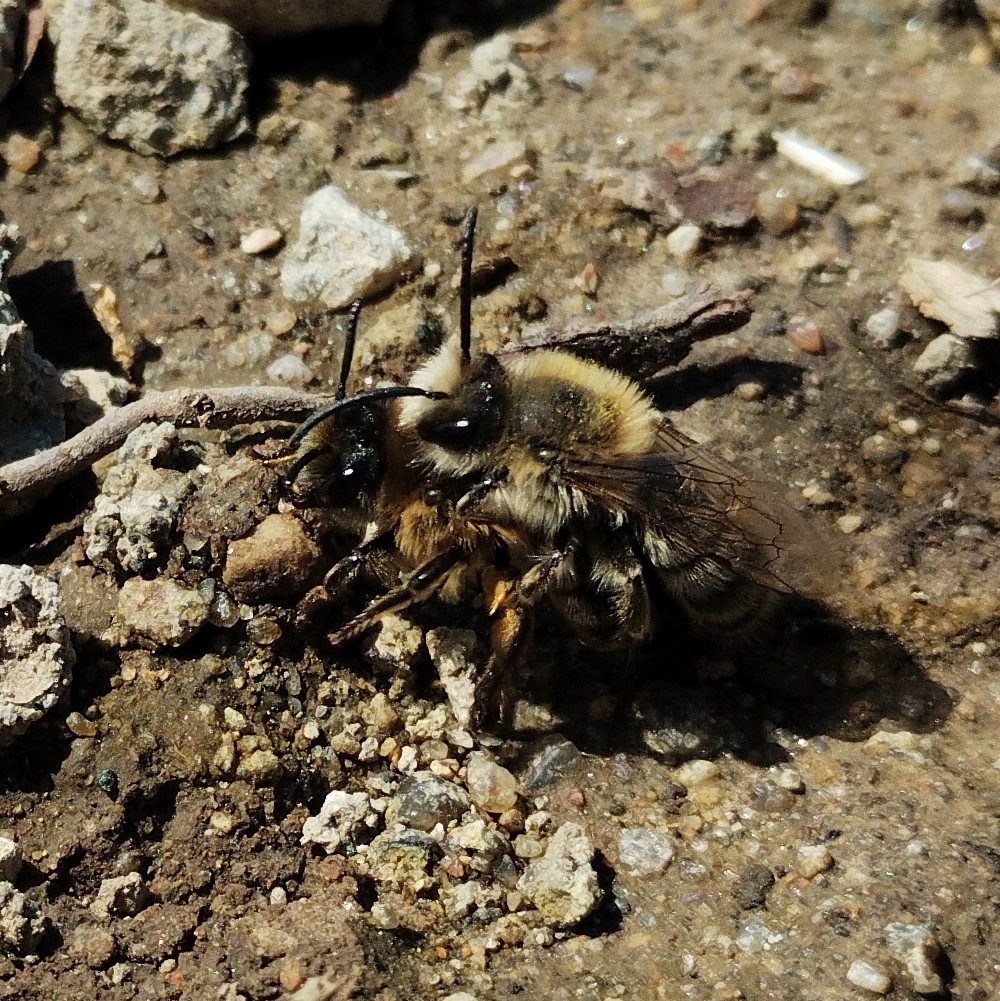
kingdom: Animalia
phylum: Arthropoda
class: Insecta
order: Hymenoptera
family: Colletidae
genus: Colletes
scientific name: Colletes cunicularius
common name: Early colletes
